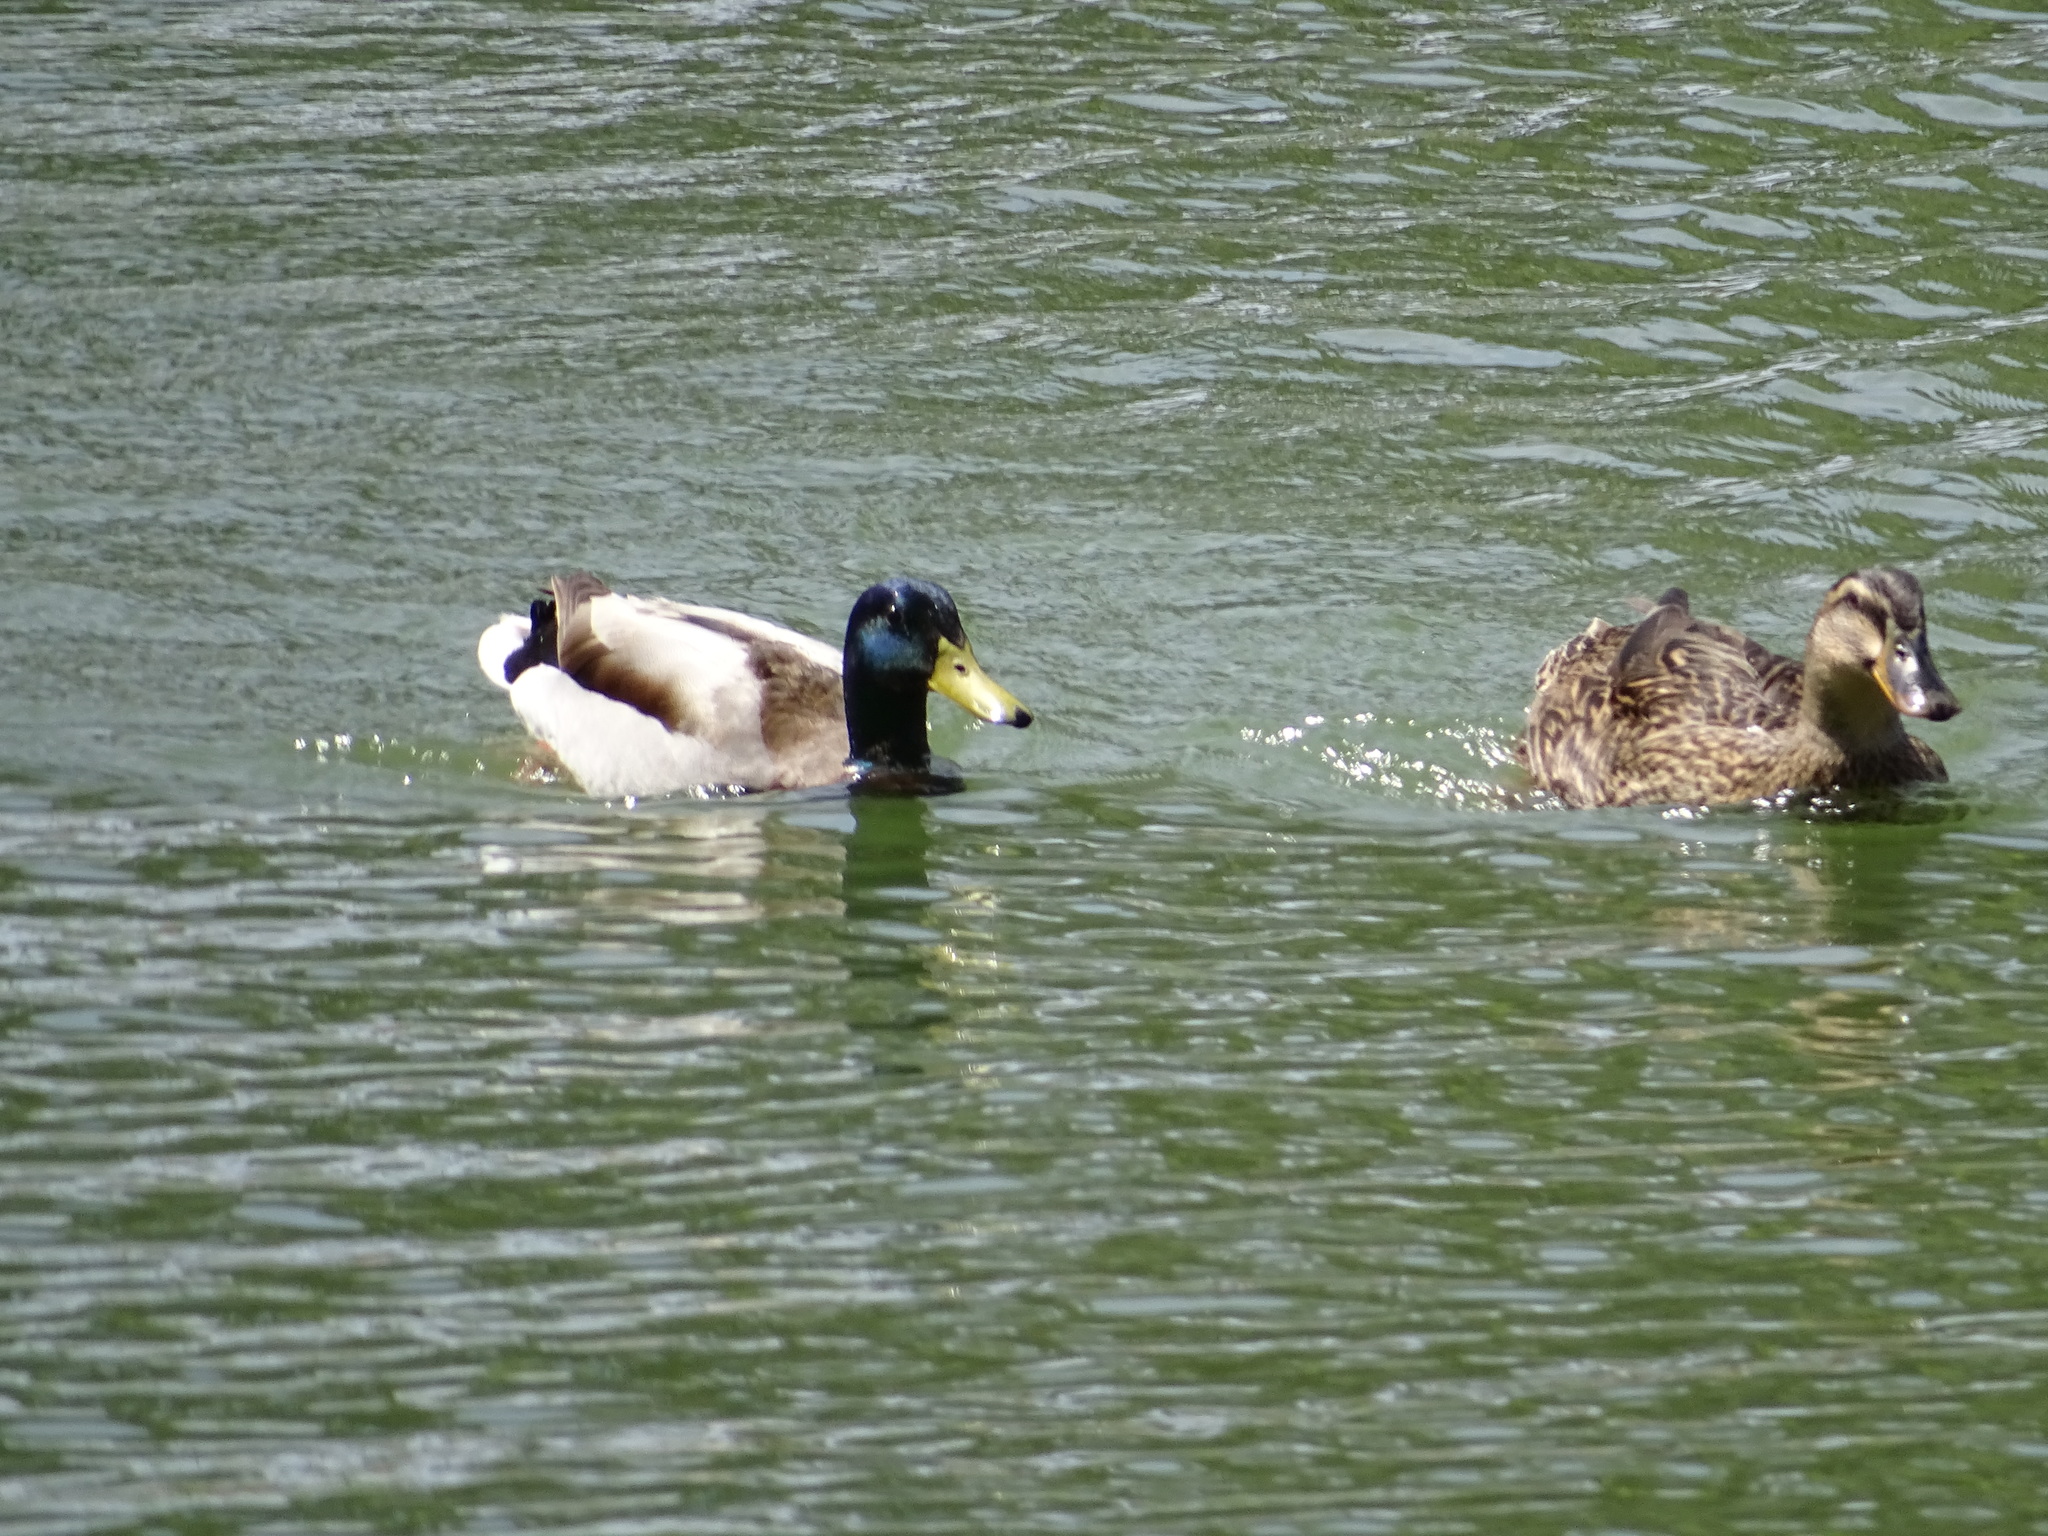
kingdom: Animalia
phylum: Chordata
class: Aves
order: Anseriformes
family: Anatidae
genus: Anas
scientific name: Anas platyrhynchos
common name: Mallard
